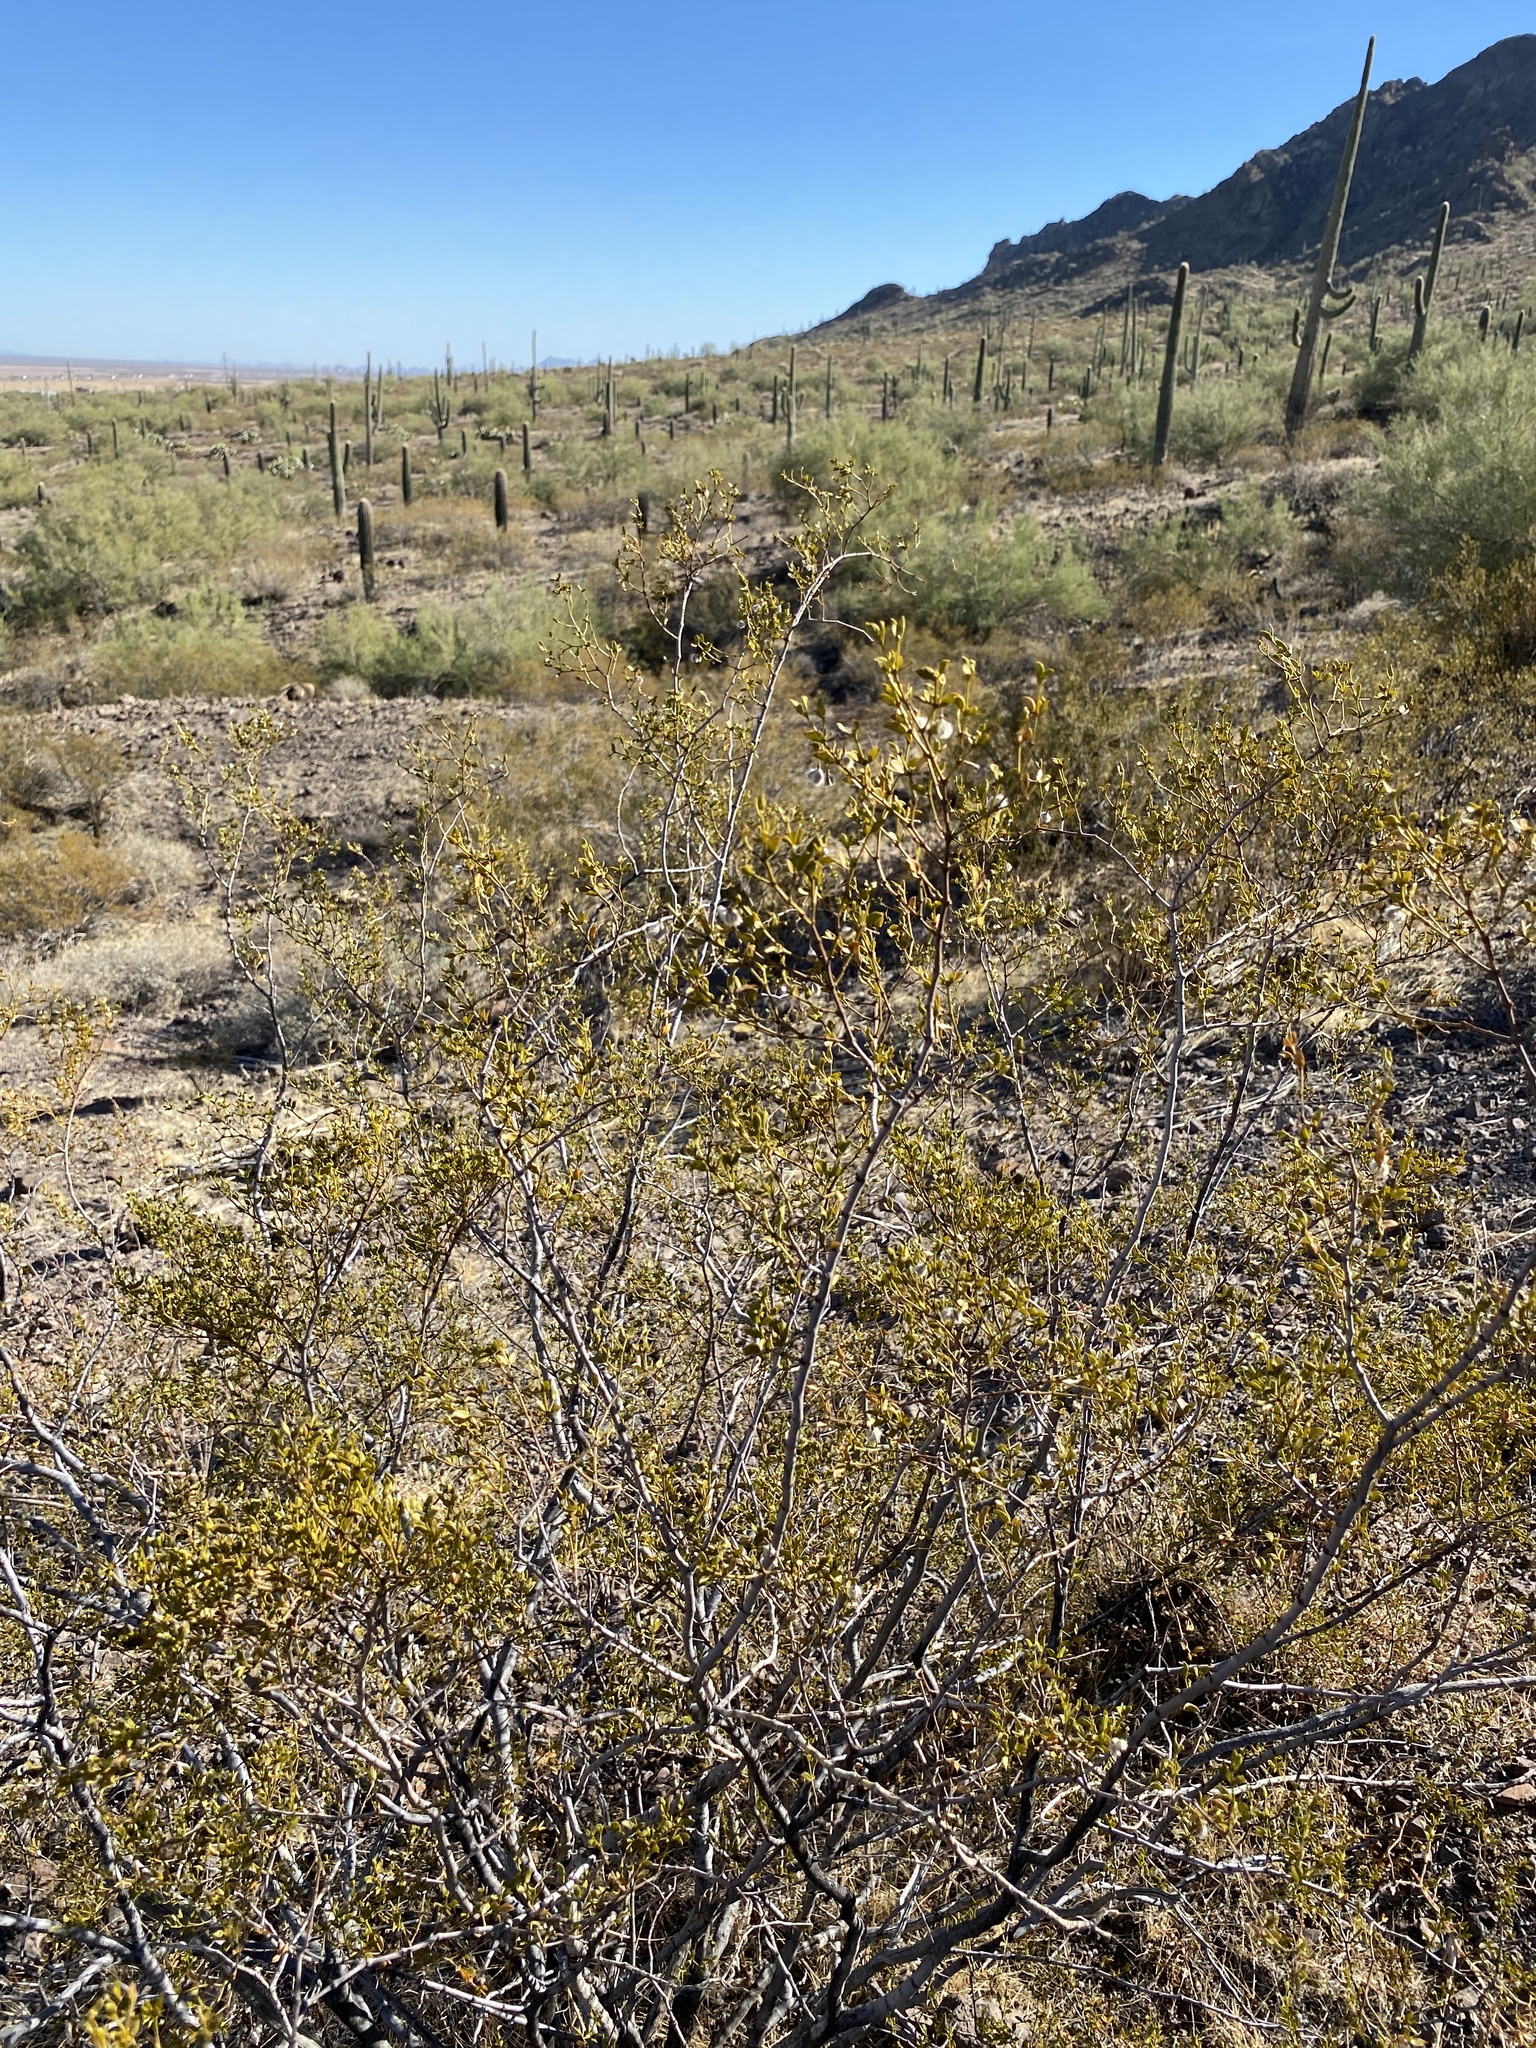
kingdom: Plantae
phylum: Tracheophyta
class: Magnoliopsida
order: Zygophyllales
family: Zygophyllaceae
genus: Larrea
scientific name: Larrea tridentata
